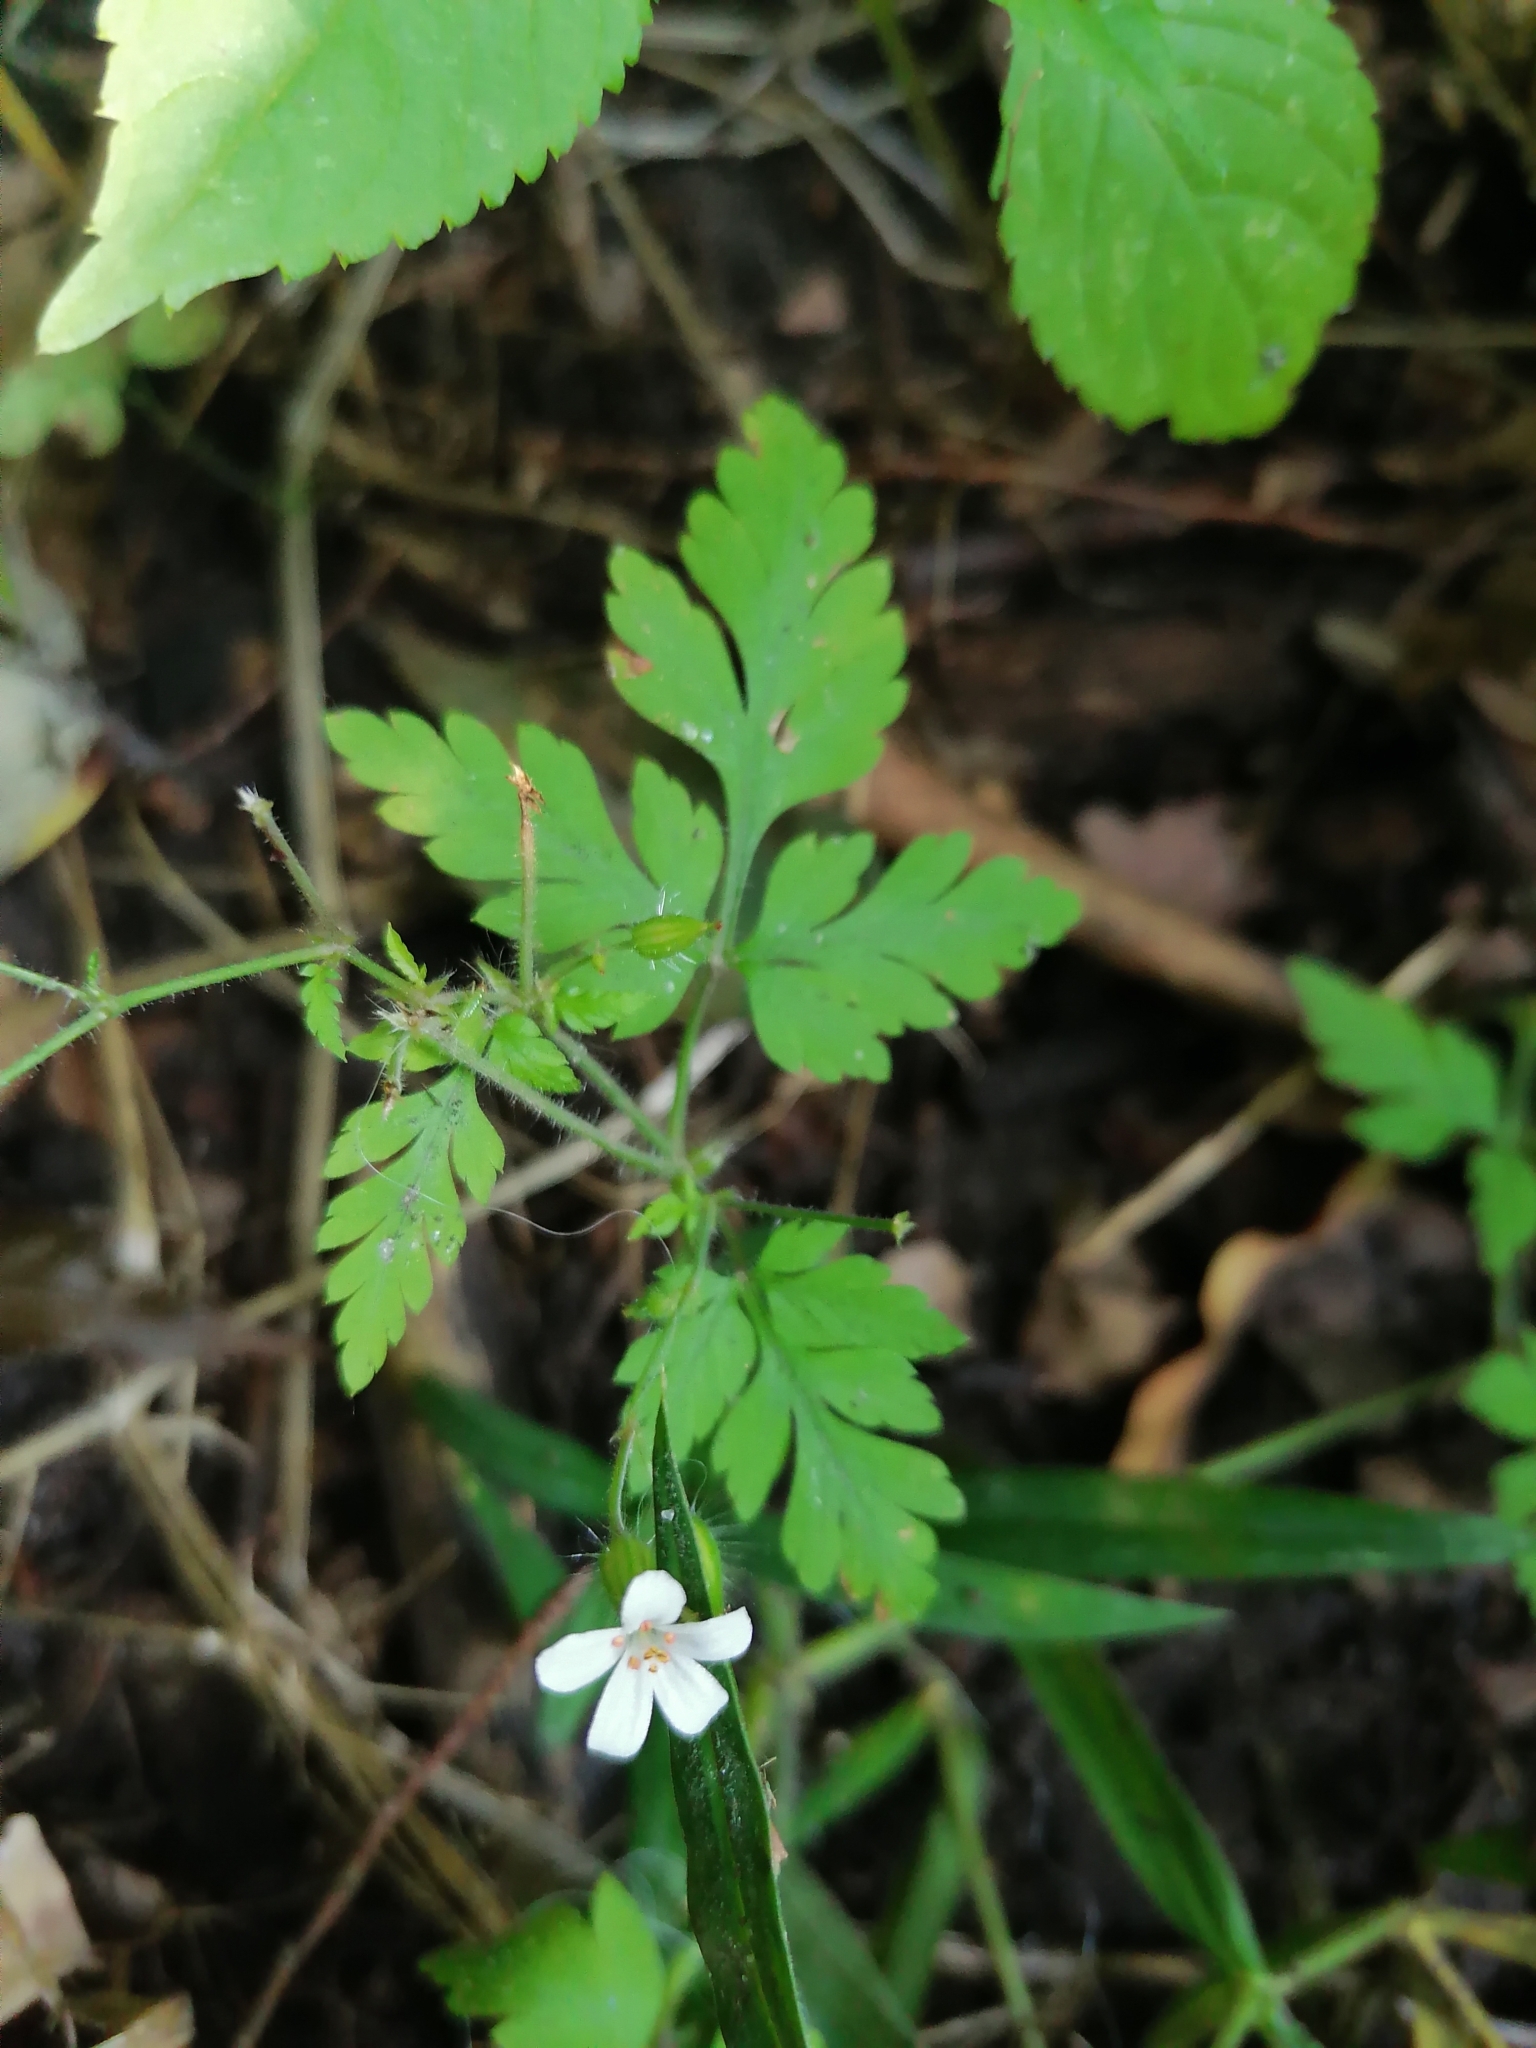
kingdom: Plantae
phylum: Tracheophyta
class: Magnoliopsida
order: Geraniales
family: Geraniaceae
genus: Geranium
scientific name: Geranium robertianum
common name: Herb-robert
